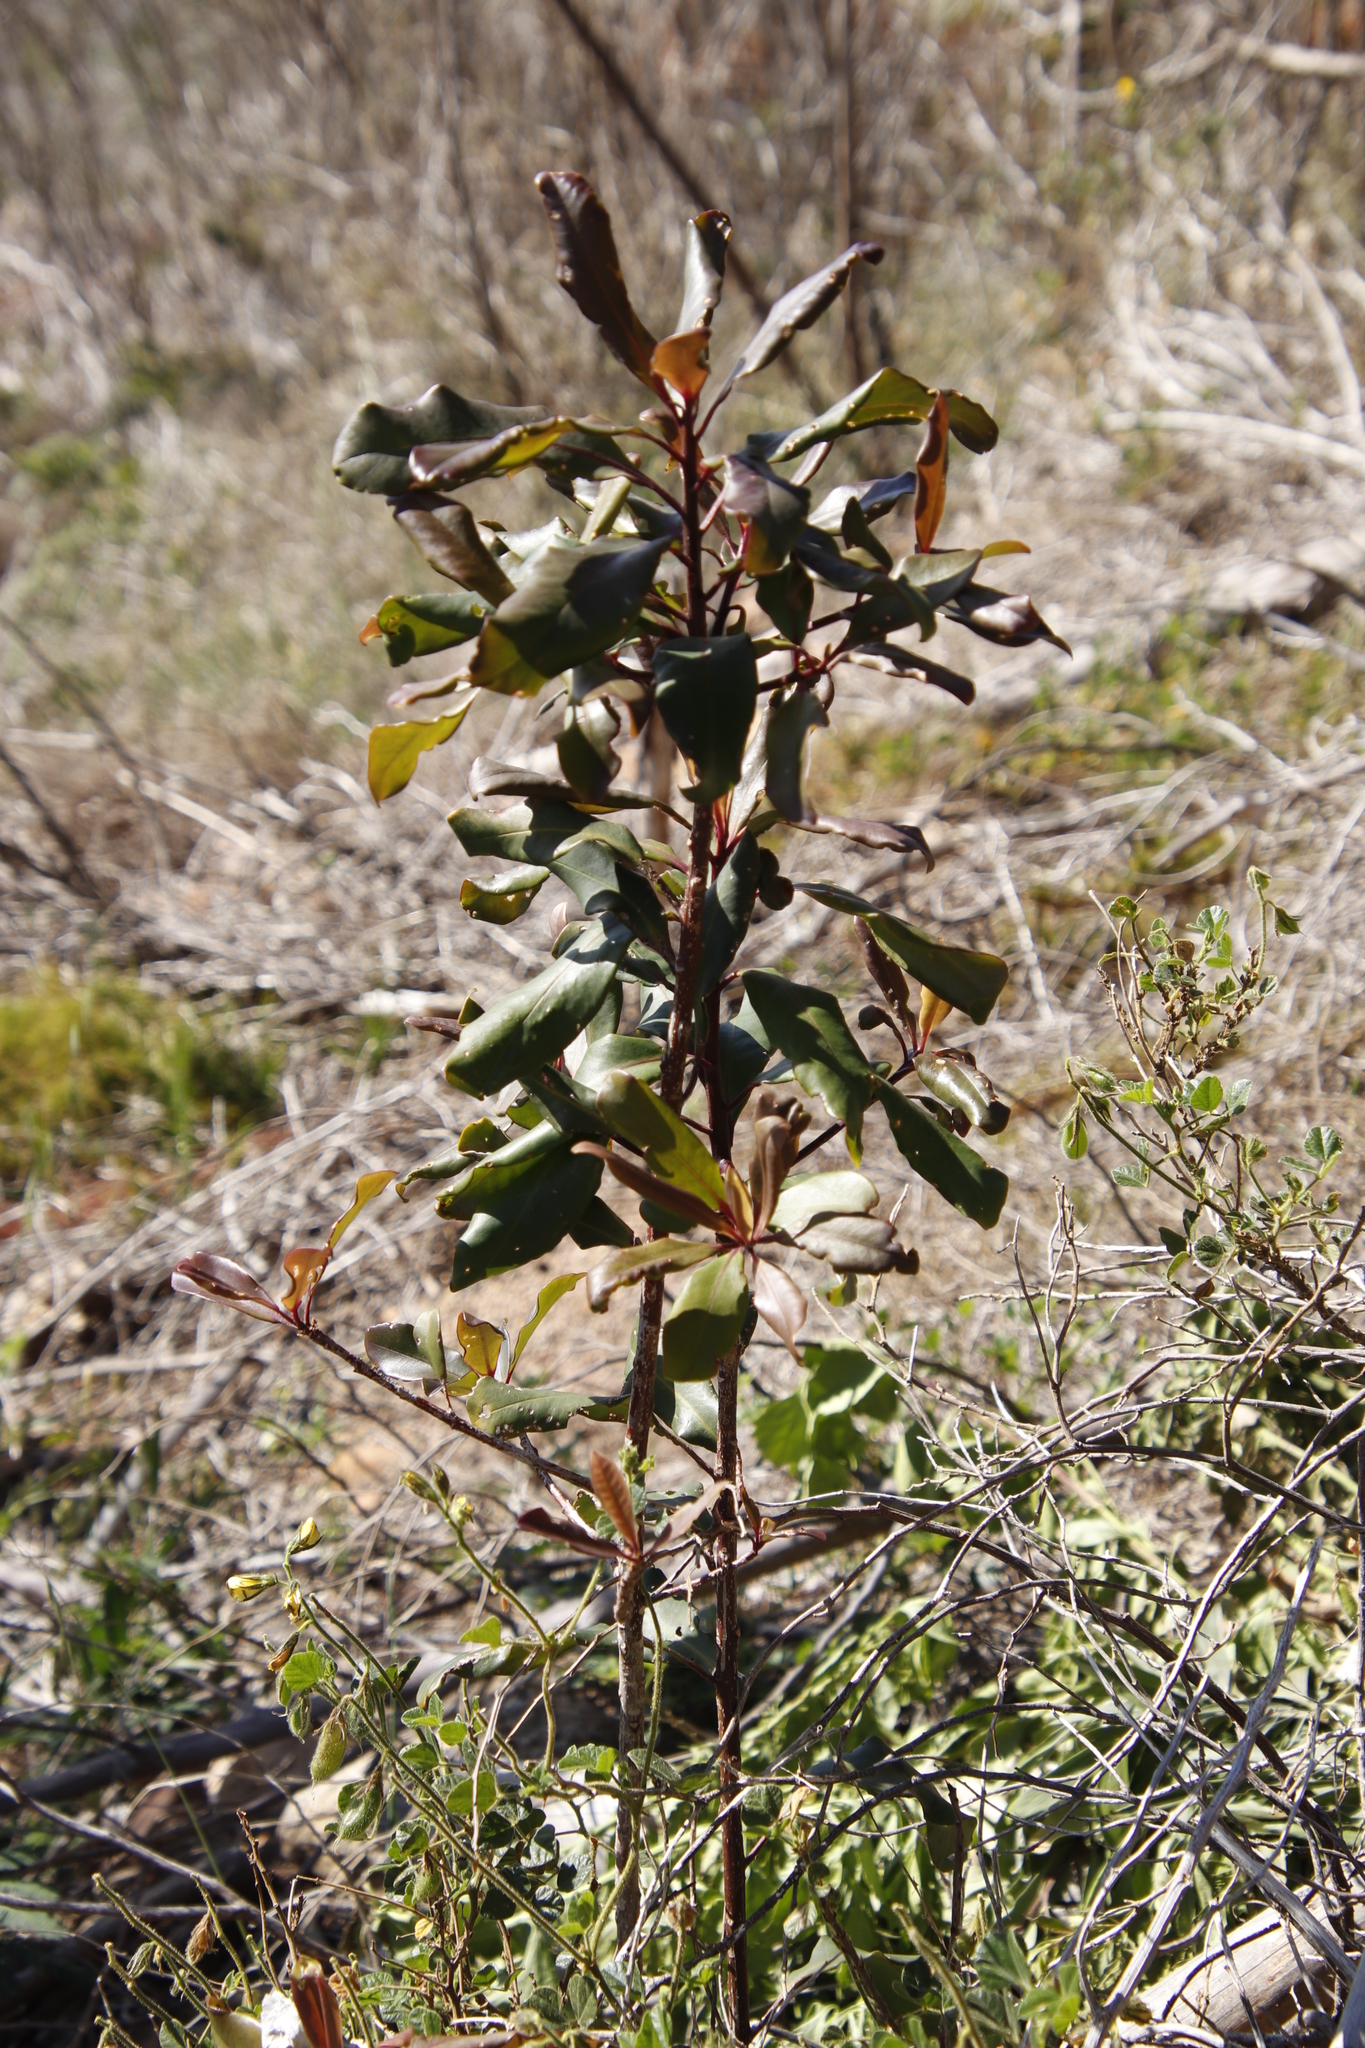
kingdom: Plantae
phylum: Tracheophyta
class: Magnoliopsida
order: Ericales
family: Primulaceae
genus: Myrsine
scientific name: Myrsine melanophloeos
